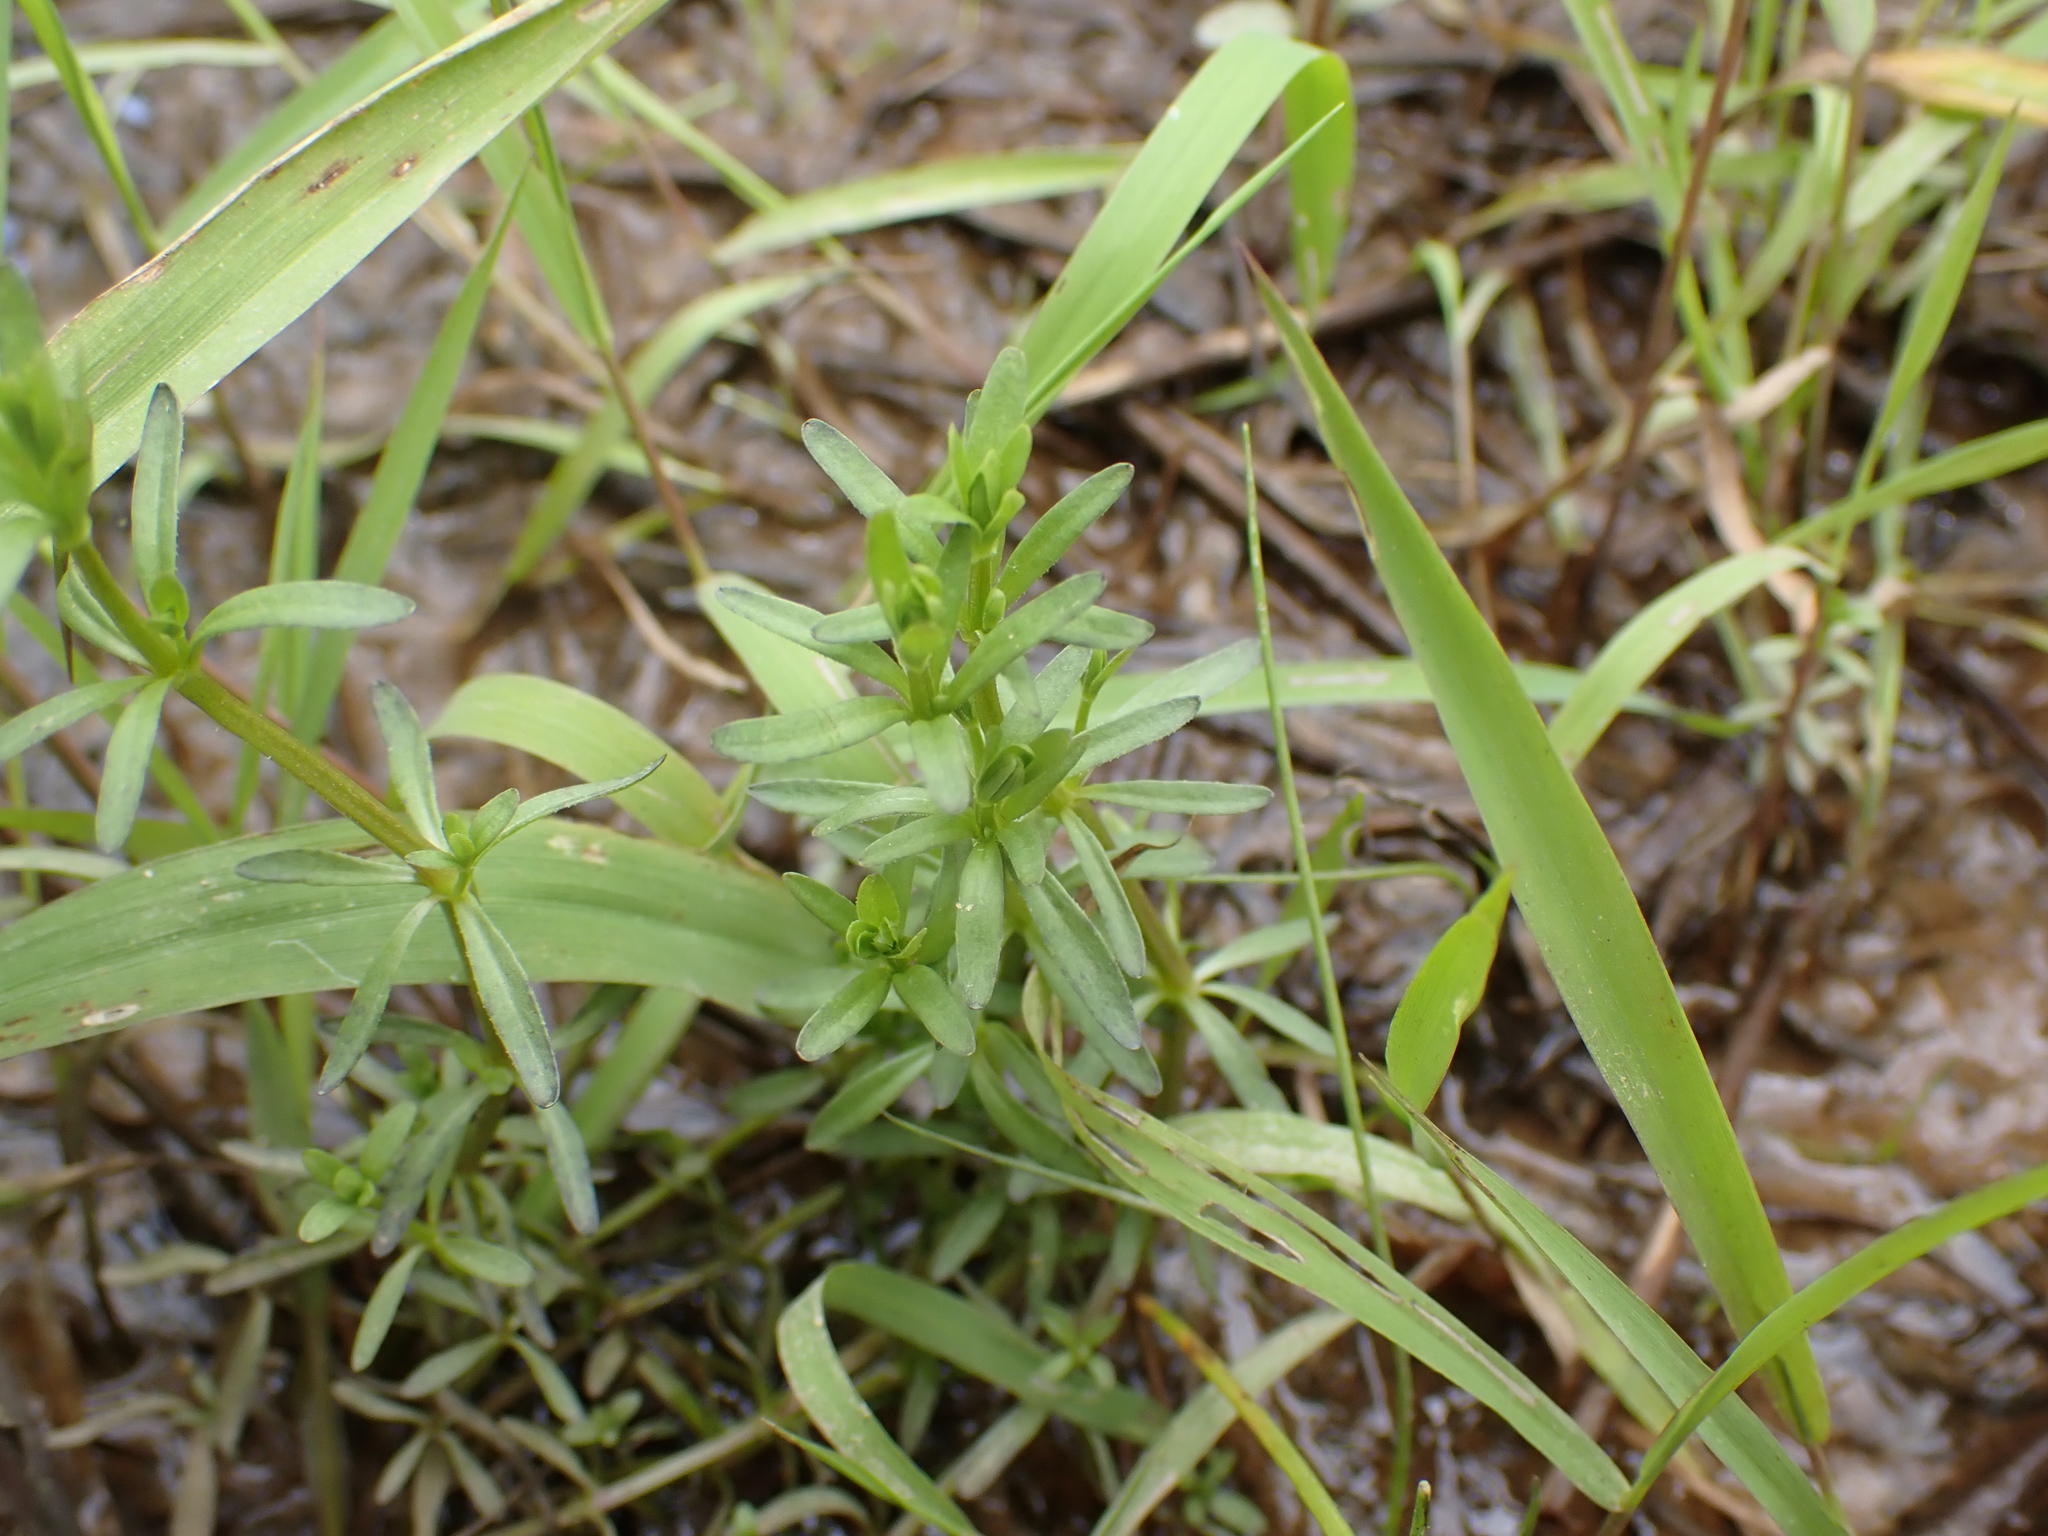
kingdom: Plantae
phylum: Tracheophyta
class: Magnoliopsida
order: Lamiales
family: Plantaginaceae
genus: Veronica
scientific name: Veronica peregrina
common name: Neckweed
